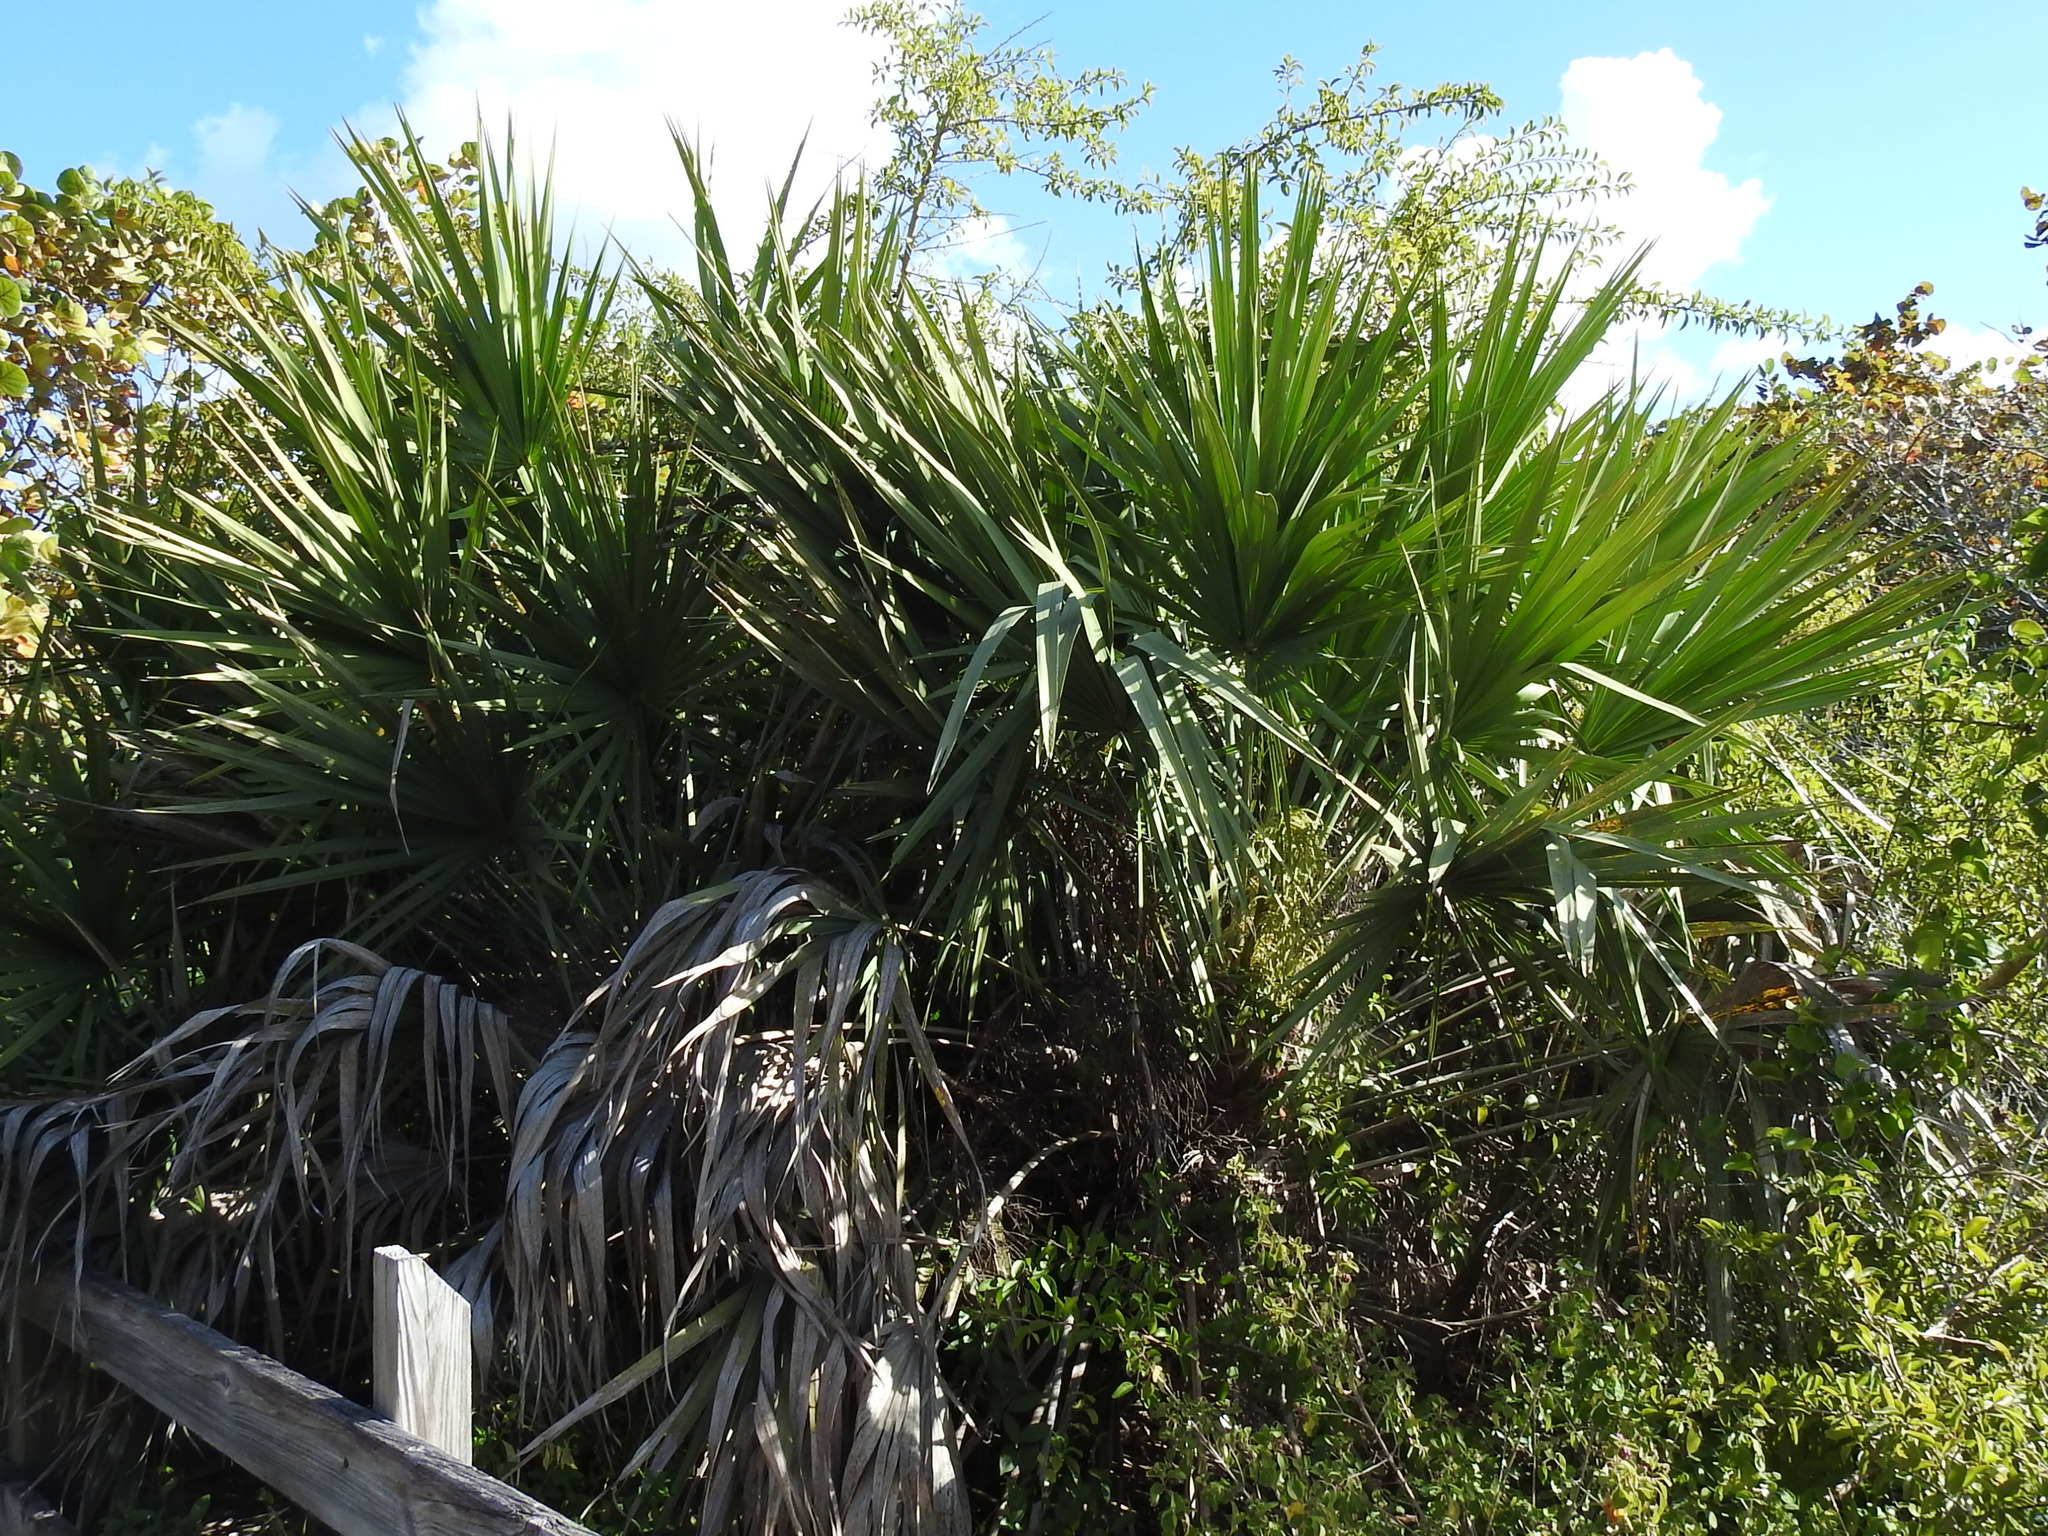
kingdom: Plantae
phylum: Tracheophyta
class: Liliopsida
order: Arecales
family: Arecaceae
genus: Serenoa
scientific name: Serenoa repens
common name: Saw-palmetto
